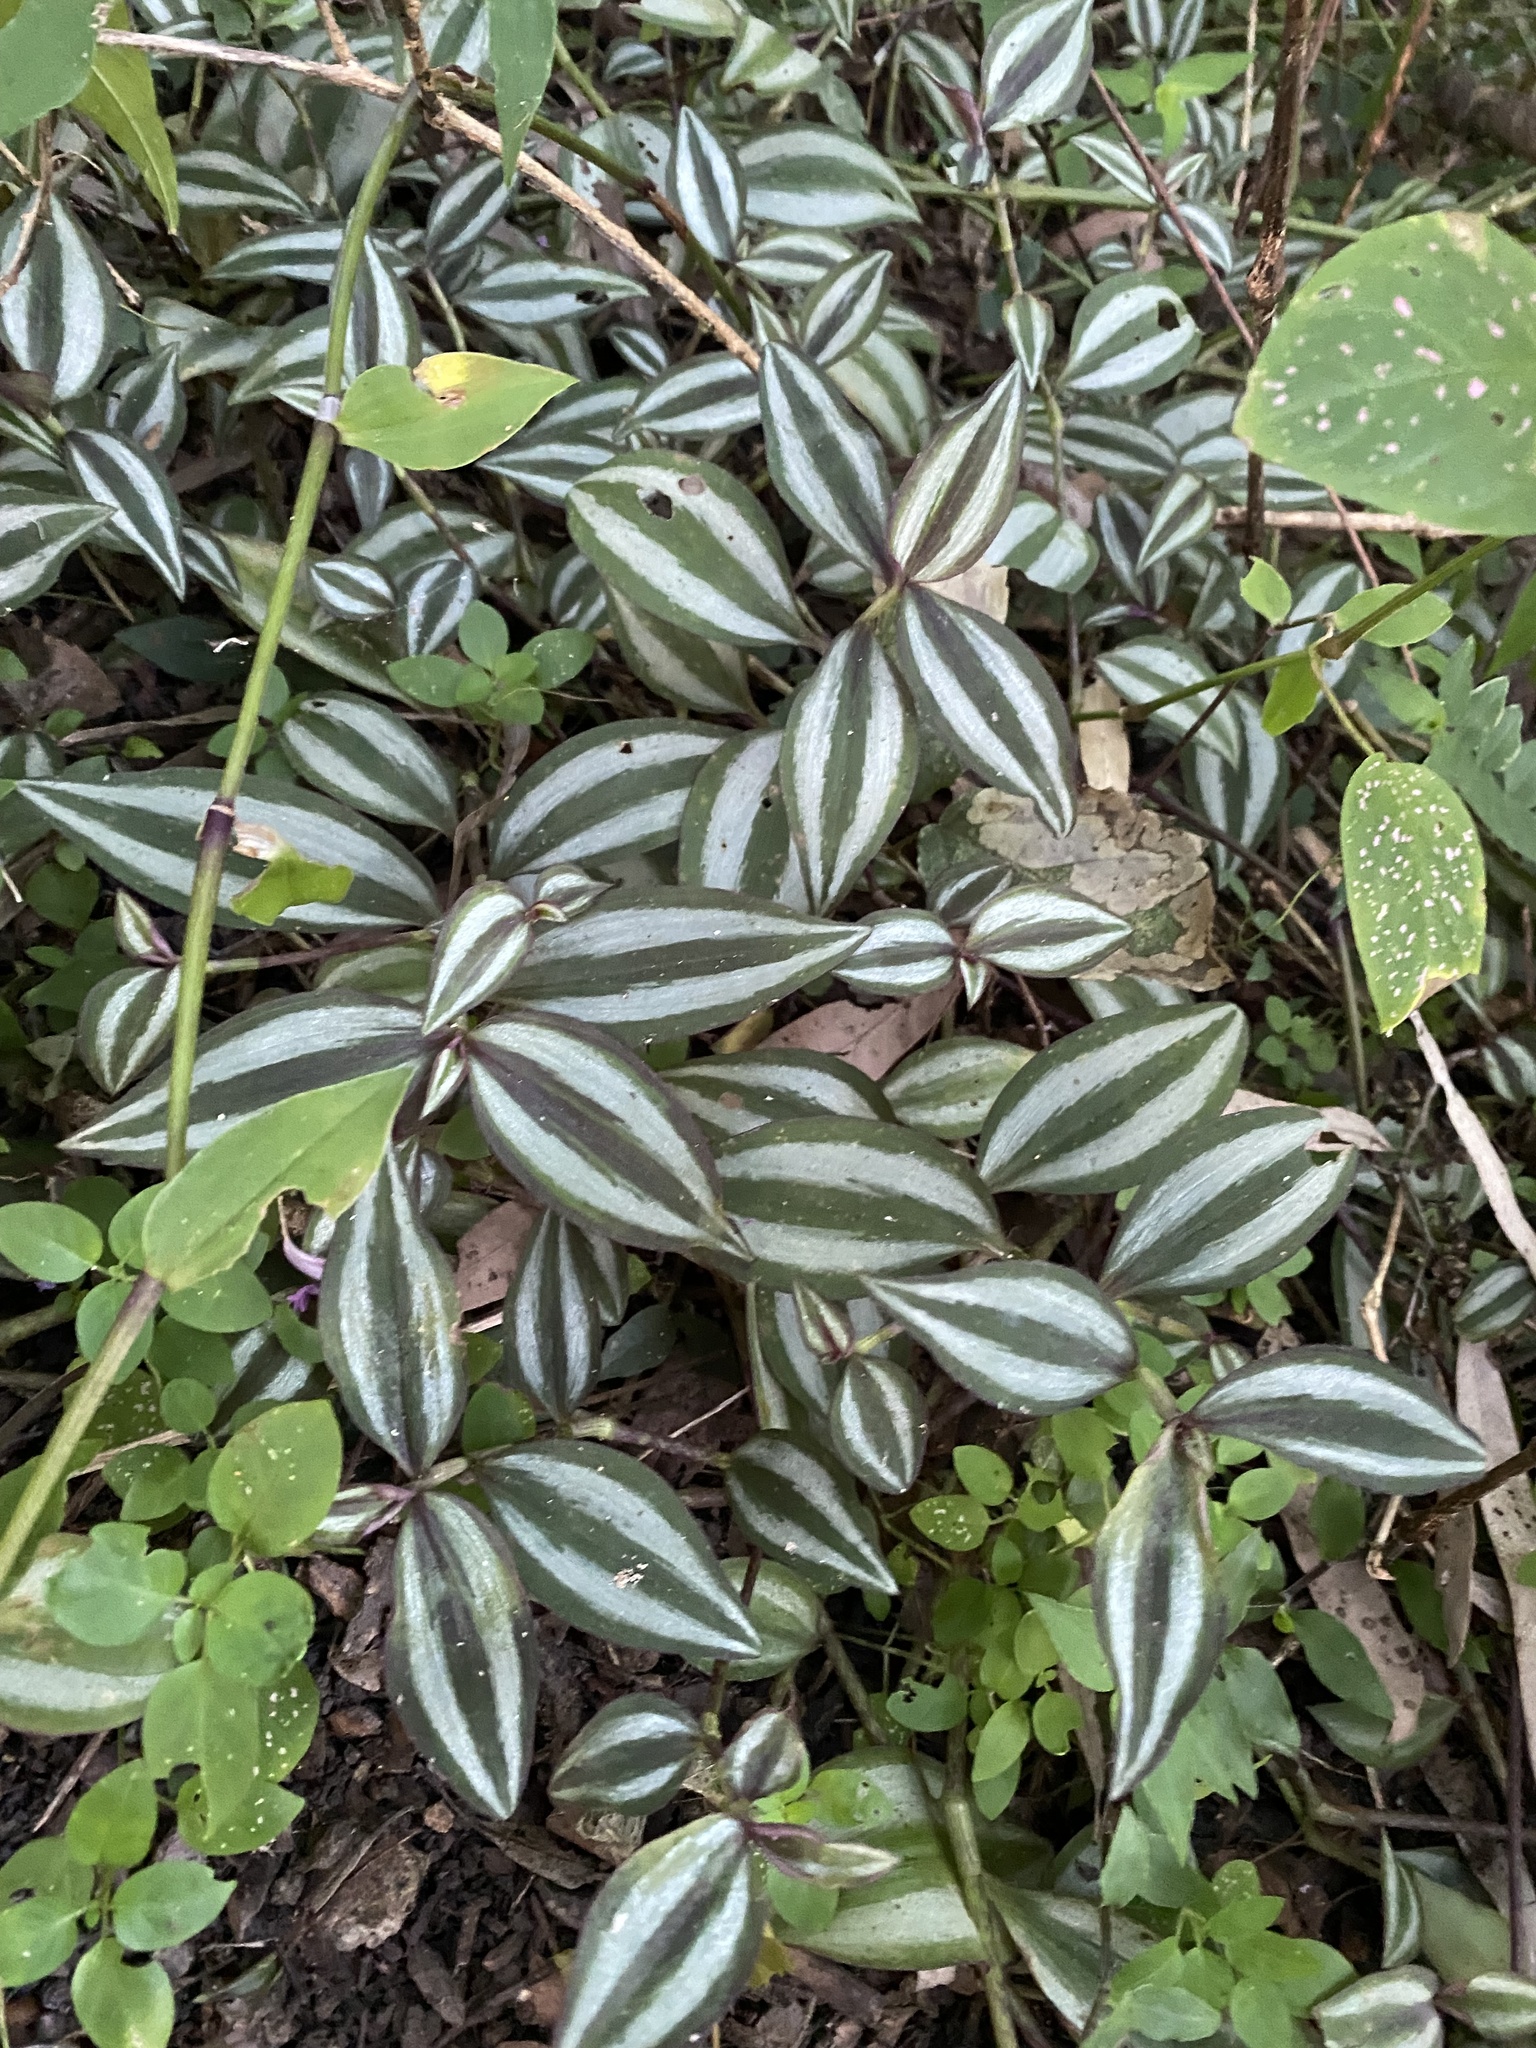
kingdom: Plantae
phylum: Tracheophyta
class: Liliopsida
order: Commelinales
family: Commelinaceae
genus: Tradescantia
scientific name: Tradescantia zebrina
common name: Inchplant
